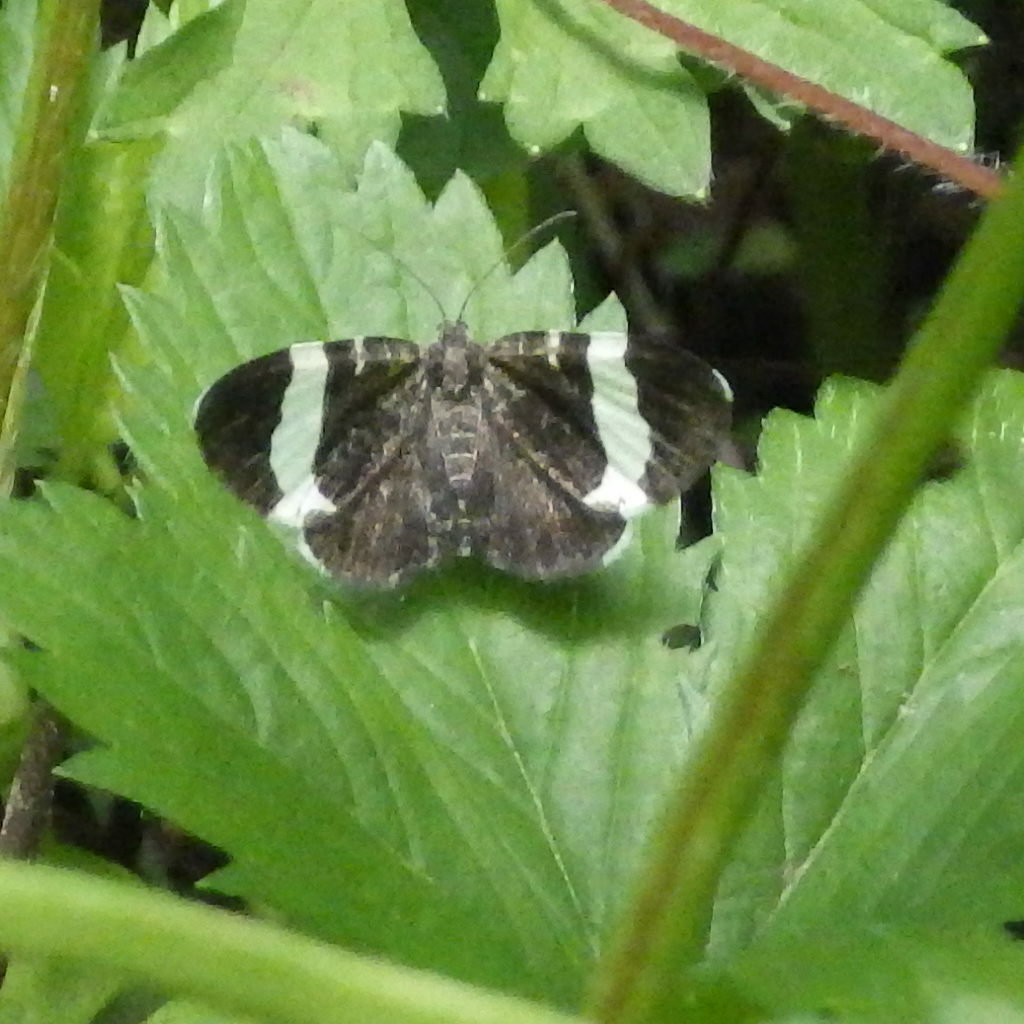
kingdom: Animalia
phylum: Arthropoda
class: Insecta
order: Lepidoptera
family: Geometridae
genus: Trichodezia
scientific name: Trichodezia albovittata
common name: White striped black
